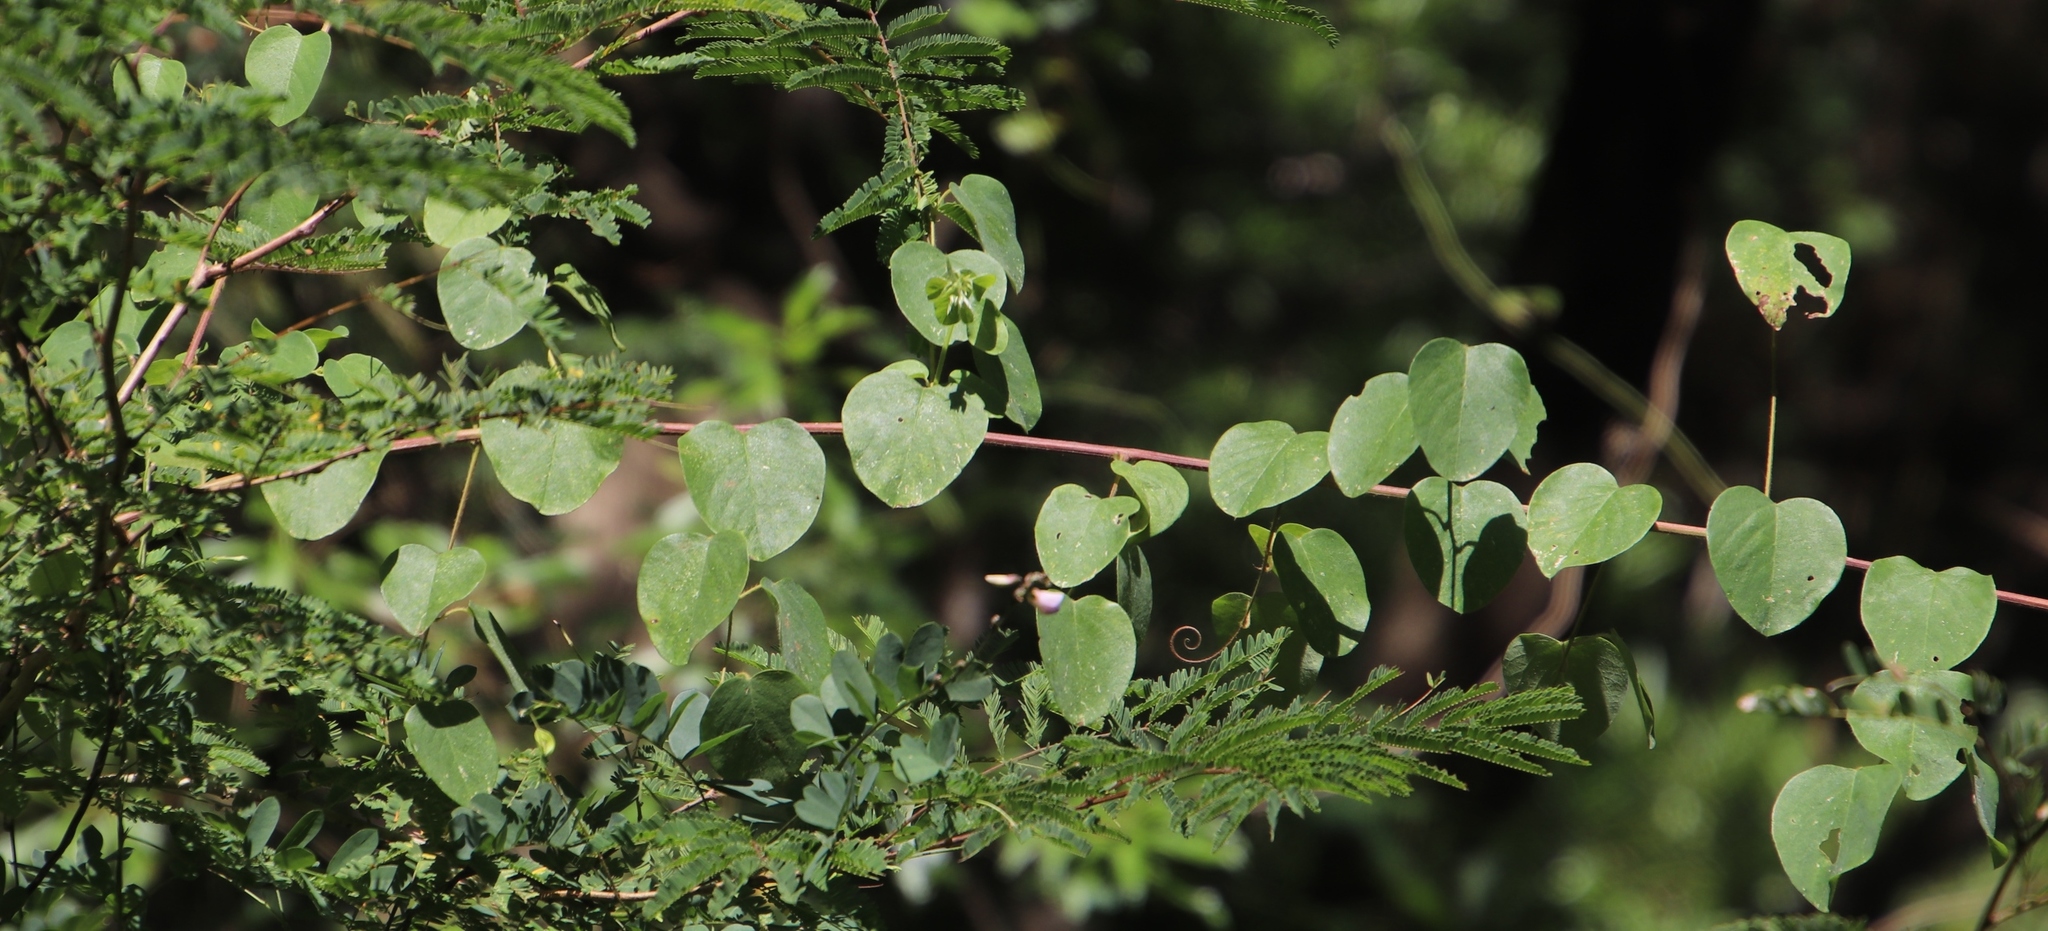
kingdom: Plantae
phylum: Tracheophyta
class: Magnoliopsida
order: Rosales
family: Rhamnaceae
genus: Helinus
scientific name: Helinus integrifolius
